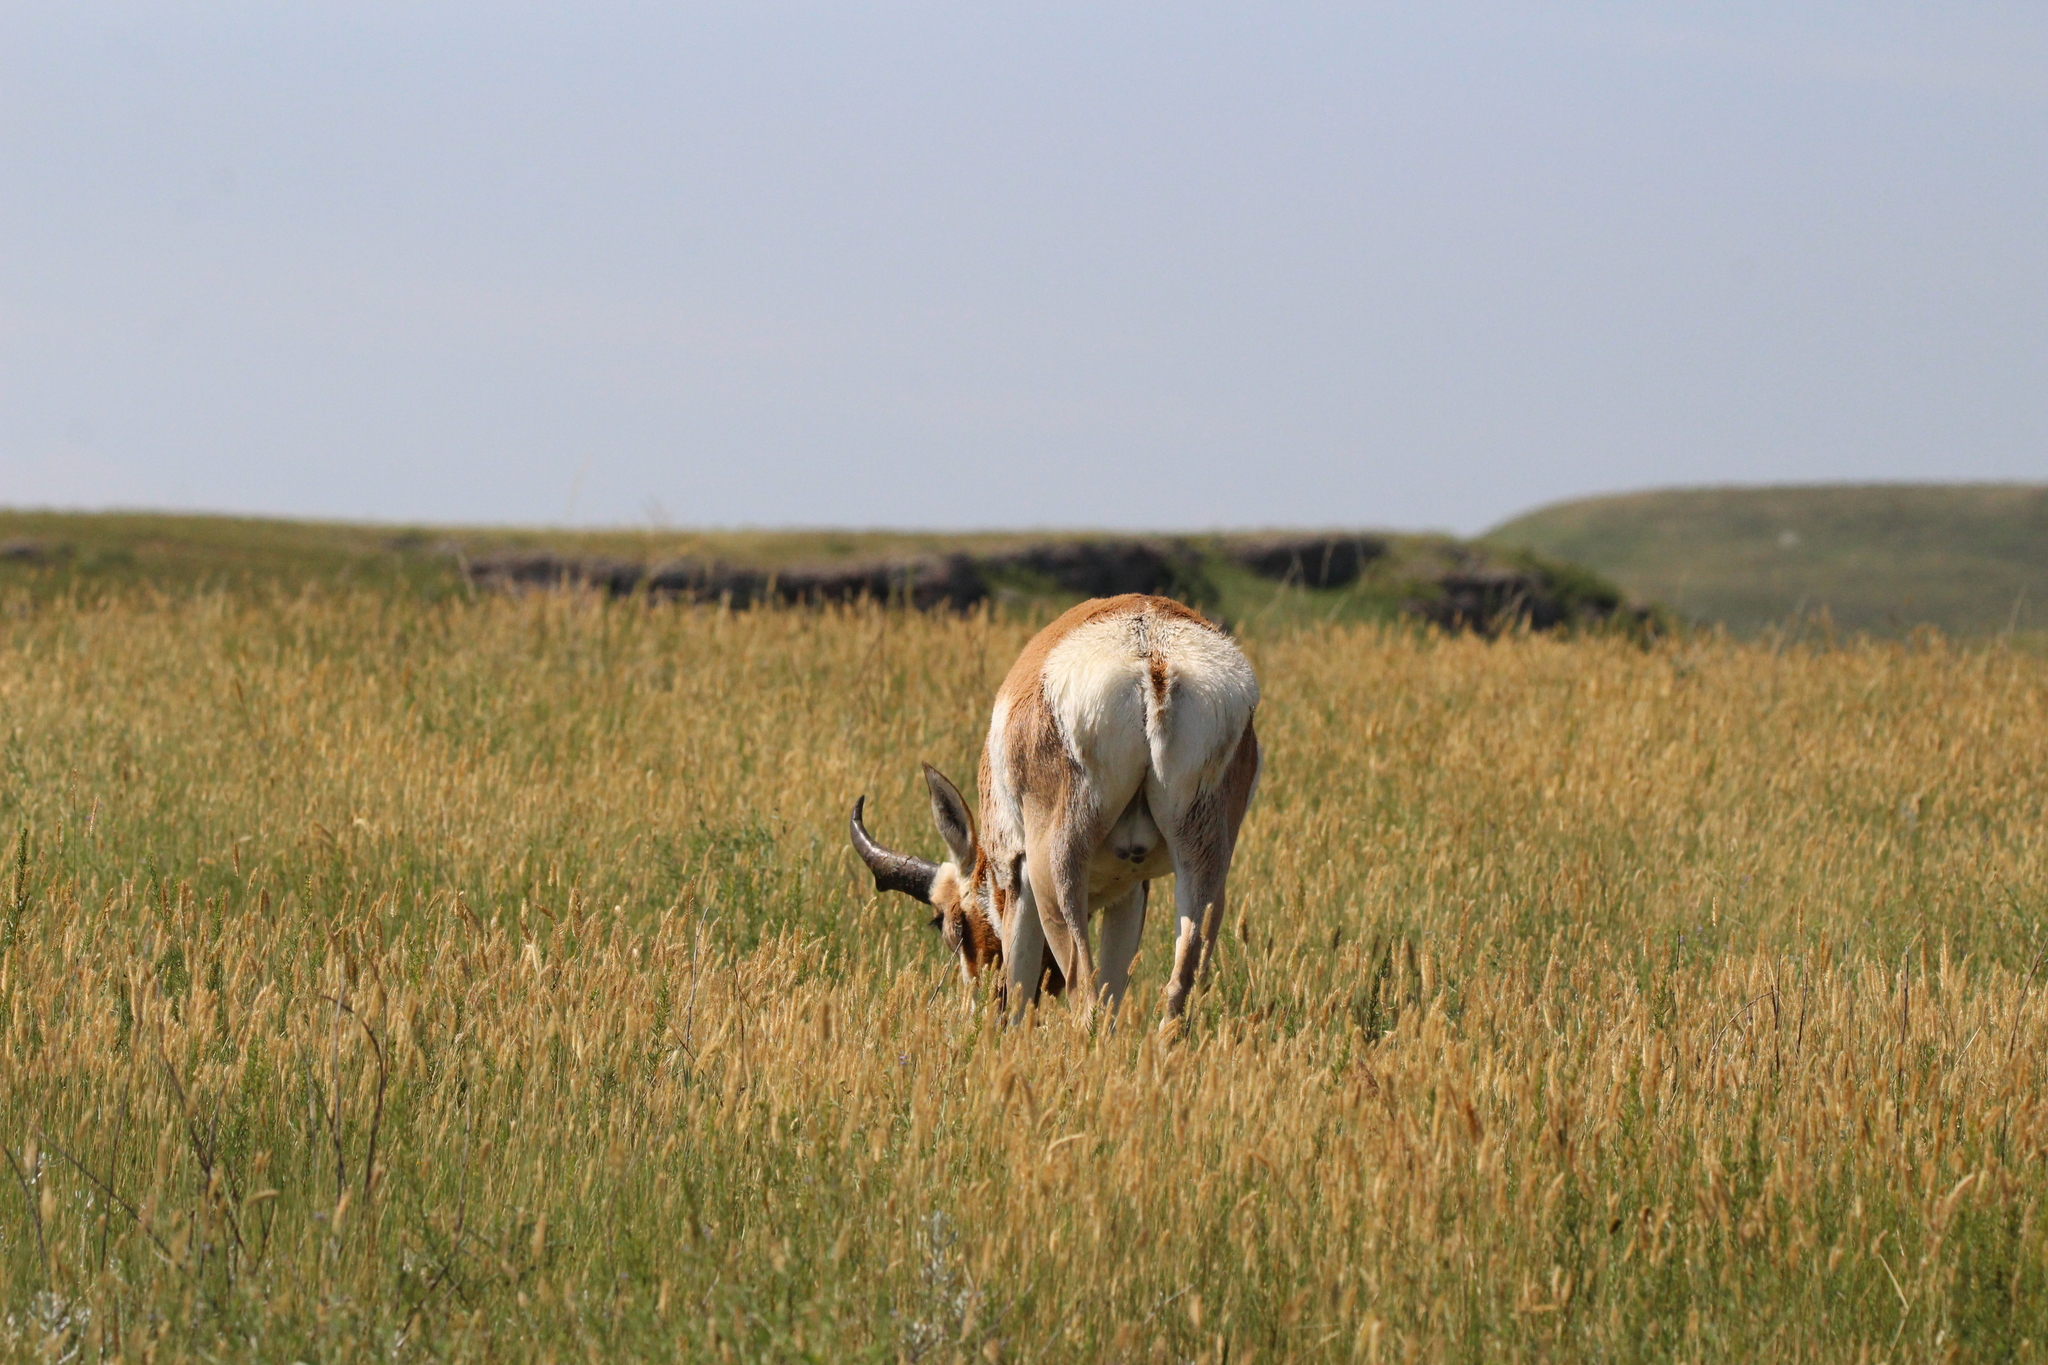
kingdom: Animalia
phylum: Chordata
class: Mammalia
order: Artiodactyla
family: Antilocapridae
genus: Antilocapra
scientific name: Antilocapra americana
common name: Pronghorn
